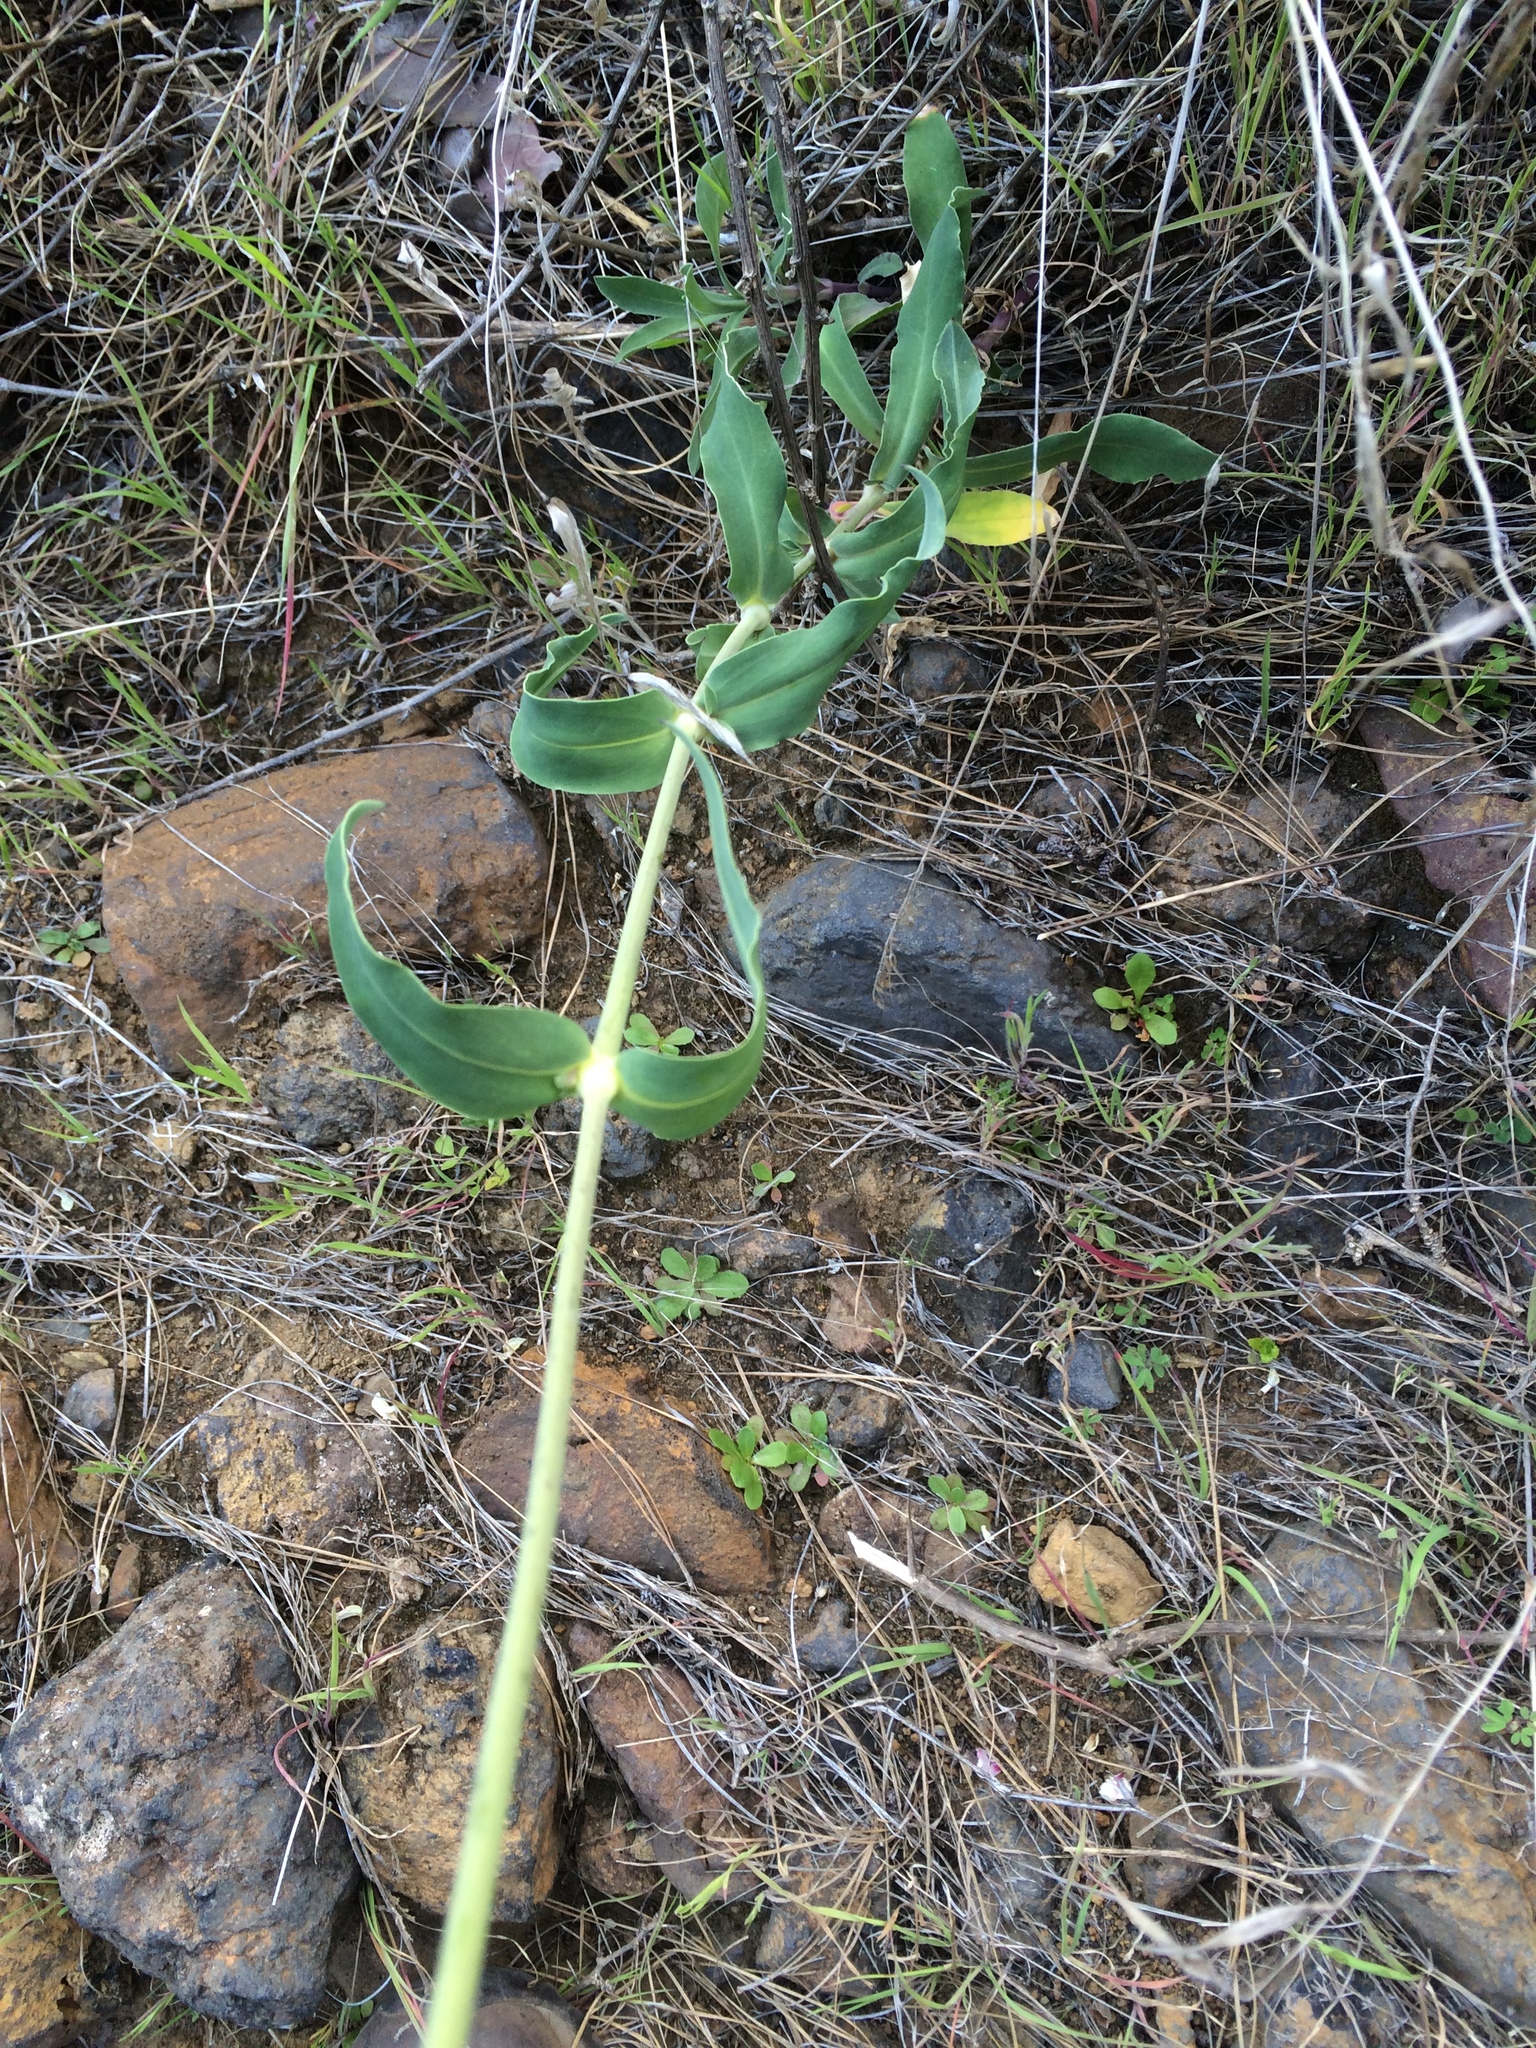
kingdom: Plantae
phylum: Tracheophyta
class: Magnoliopsida
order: Caryophyllales
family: Caryophyllaceae
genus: Silene
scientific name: Silene vulgaris
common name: Bladder campion
